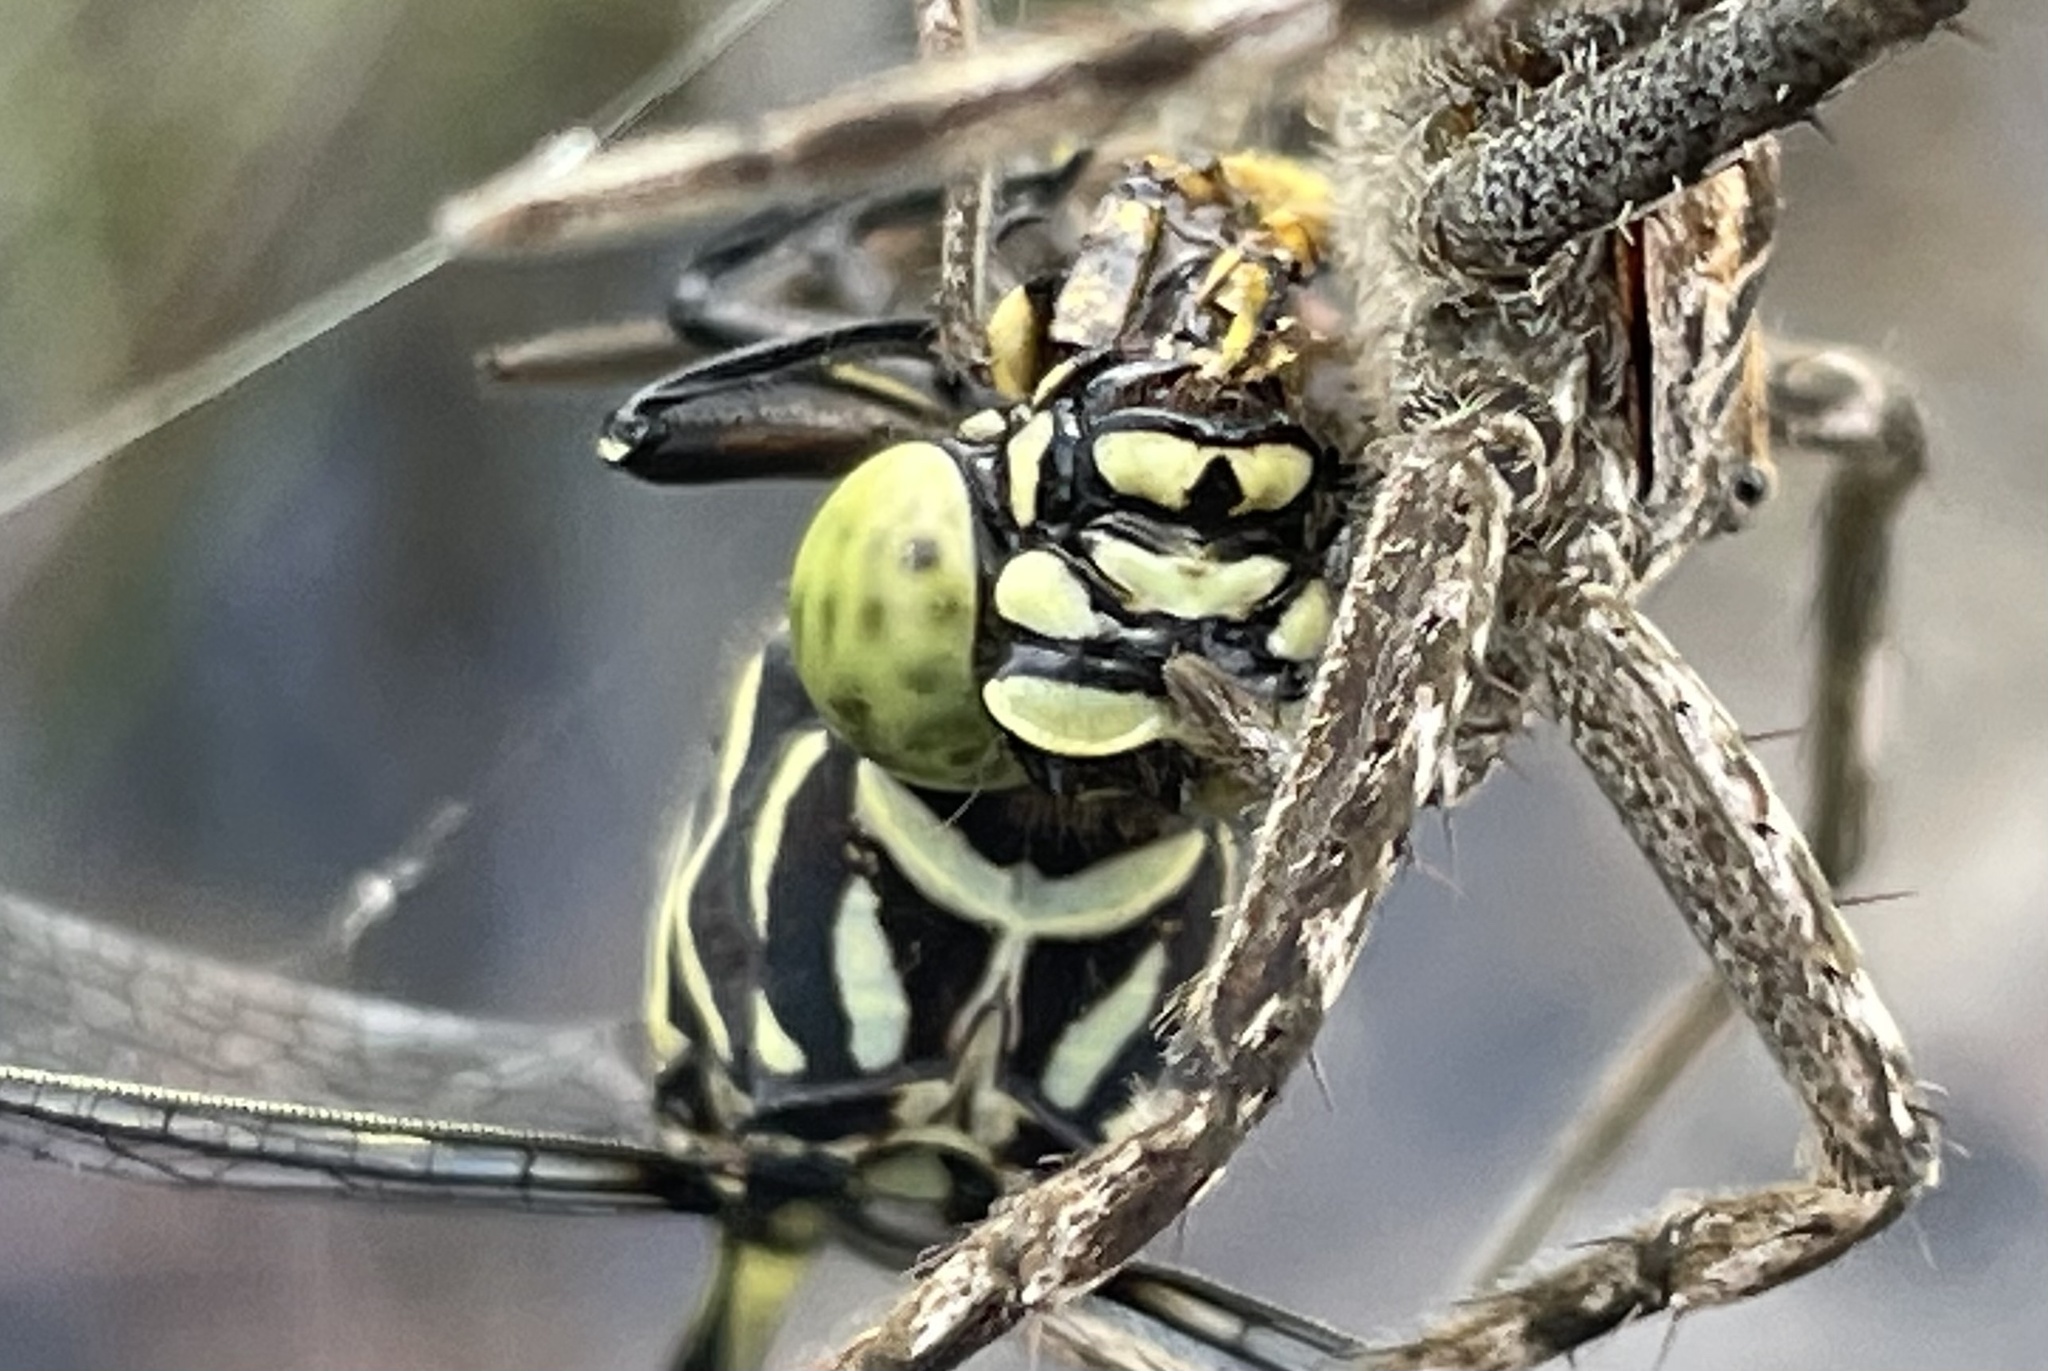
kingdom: Animalia
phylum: Arthropoda
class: Insecta
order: Odonata
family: Gomphidae
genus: Gomphidia
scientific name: Gomphidia quarrei
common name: Southern fingertail
